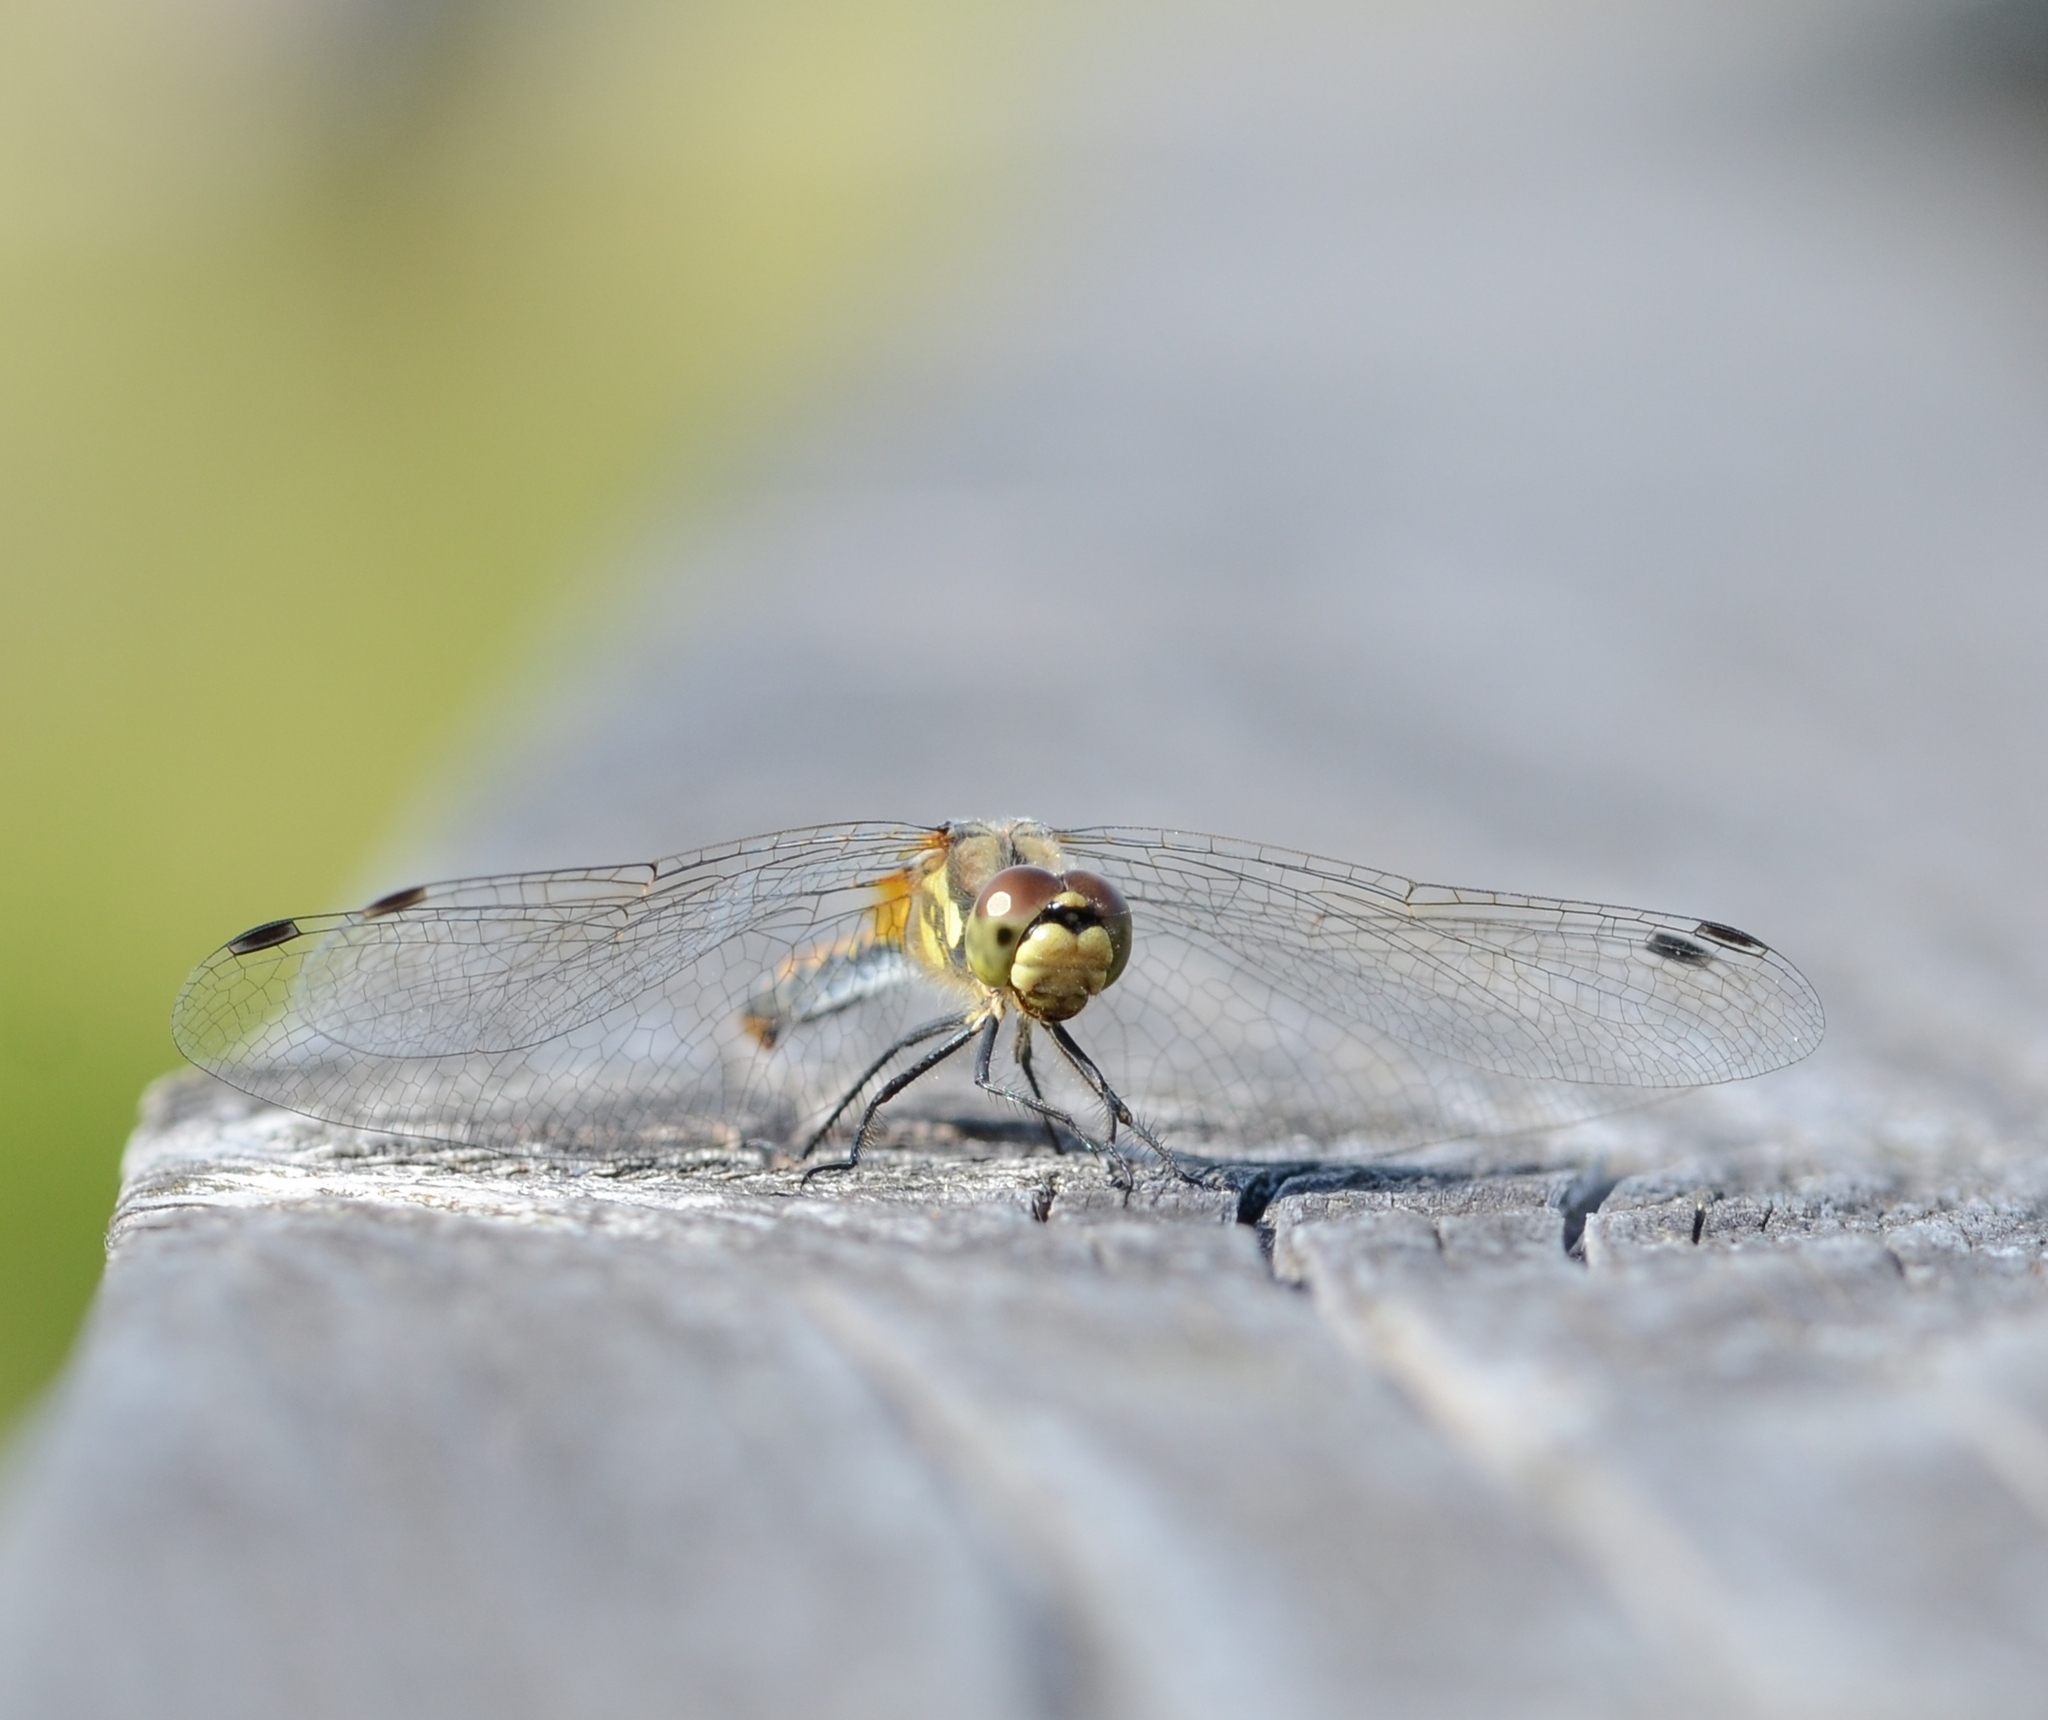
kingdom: Animalia
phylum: Arthropoda
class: Insecta
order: Odonata
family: Libellulidae
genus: Sympetrum
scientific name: Sympetrum danae
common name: Black darter
